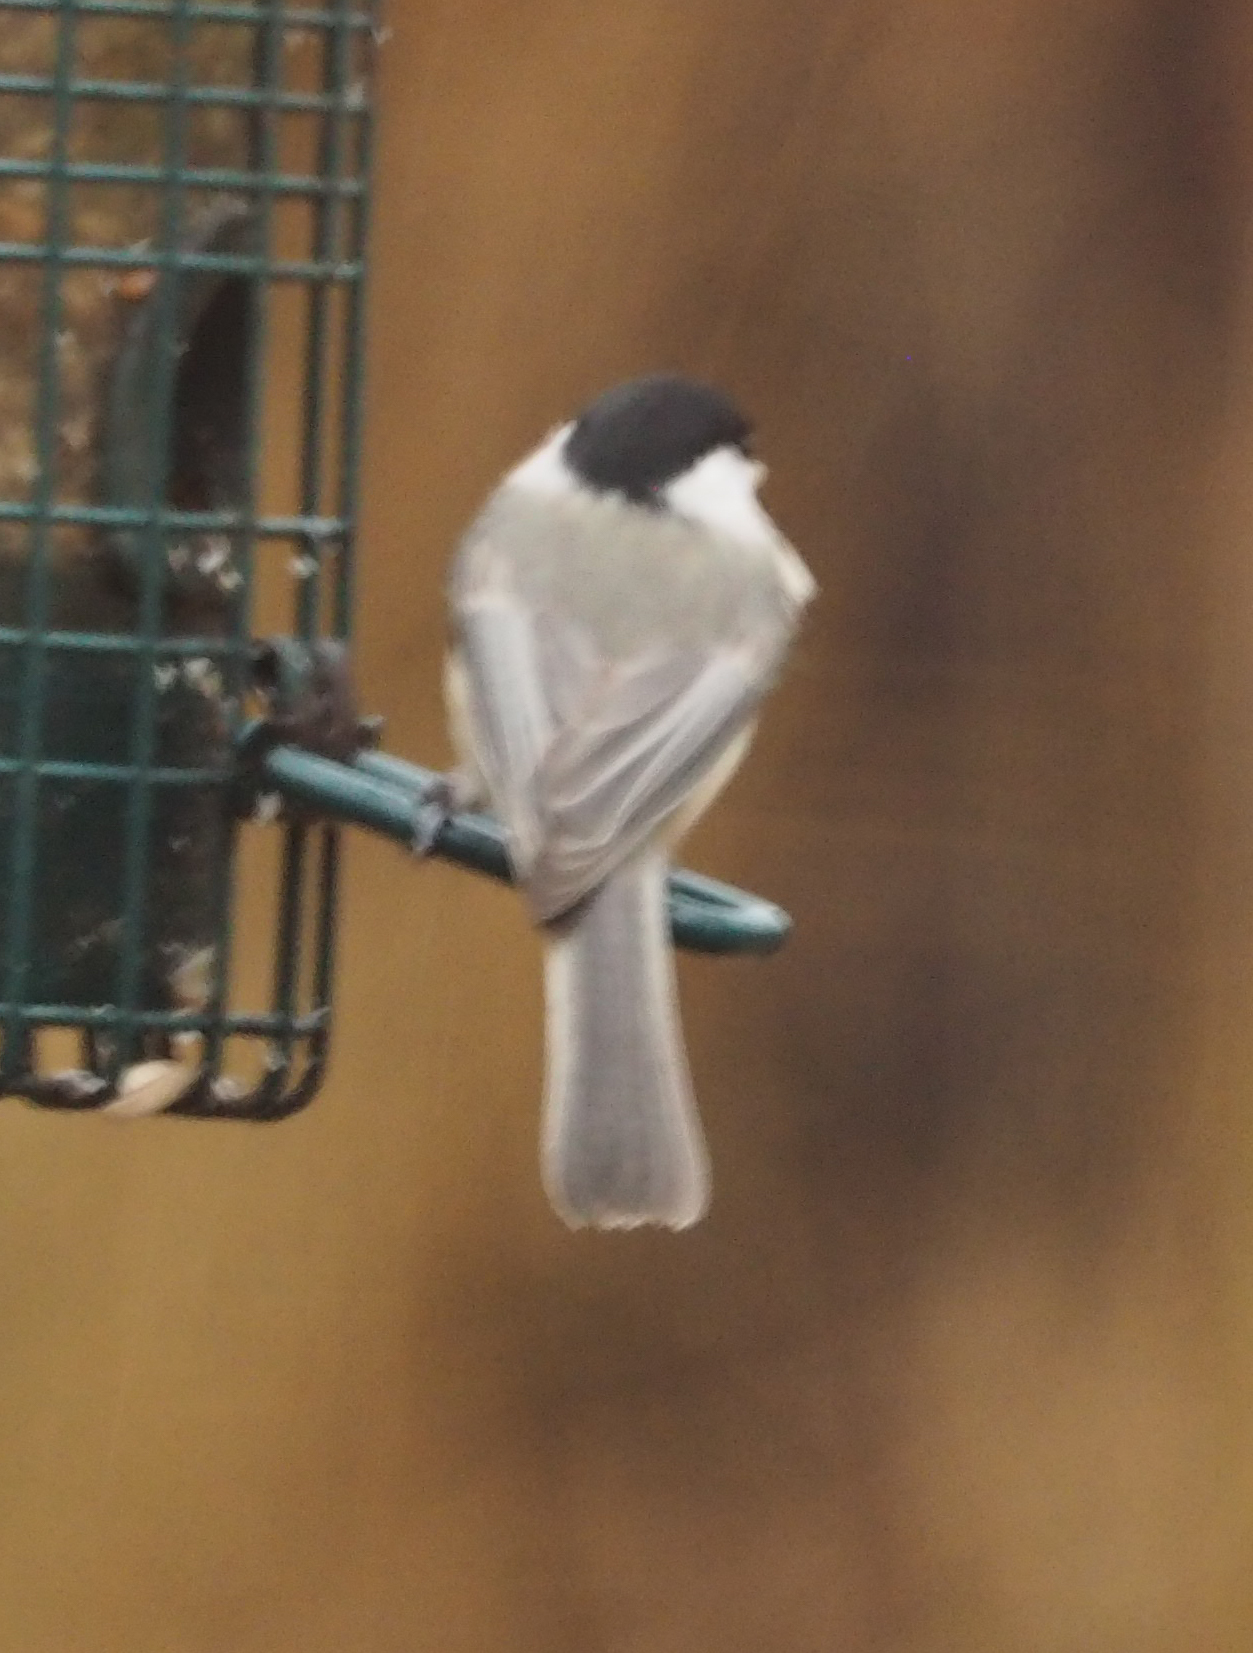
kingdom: Animalia
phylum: Chordata
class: Aves
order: Passeriformes
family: Paridae
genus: Poecile
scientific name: Poecile carolinensis
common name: Carolina chickadee
